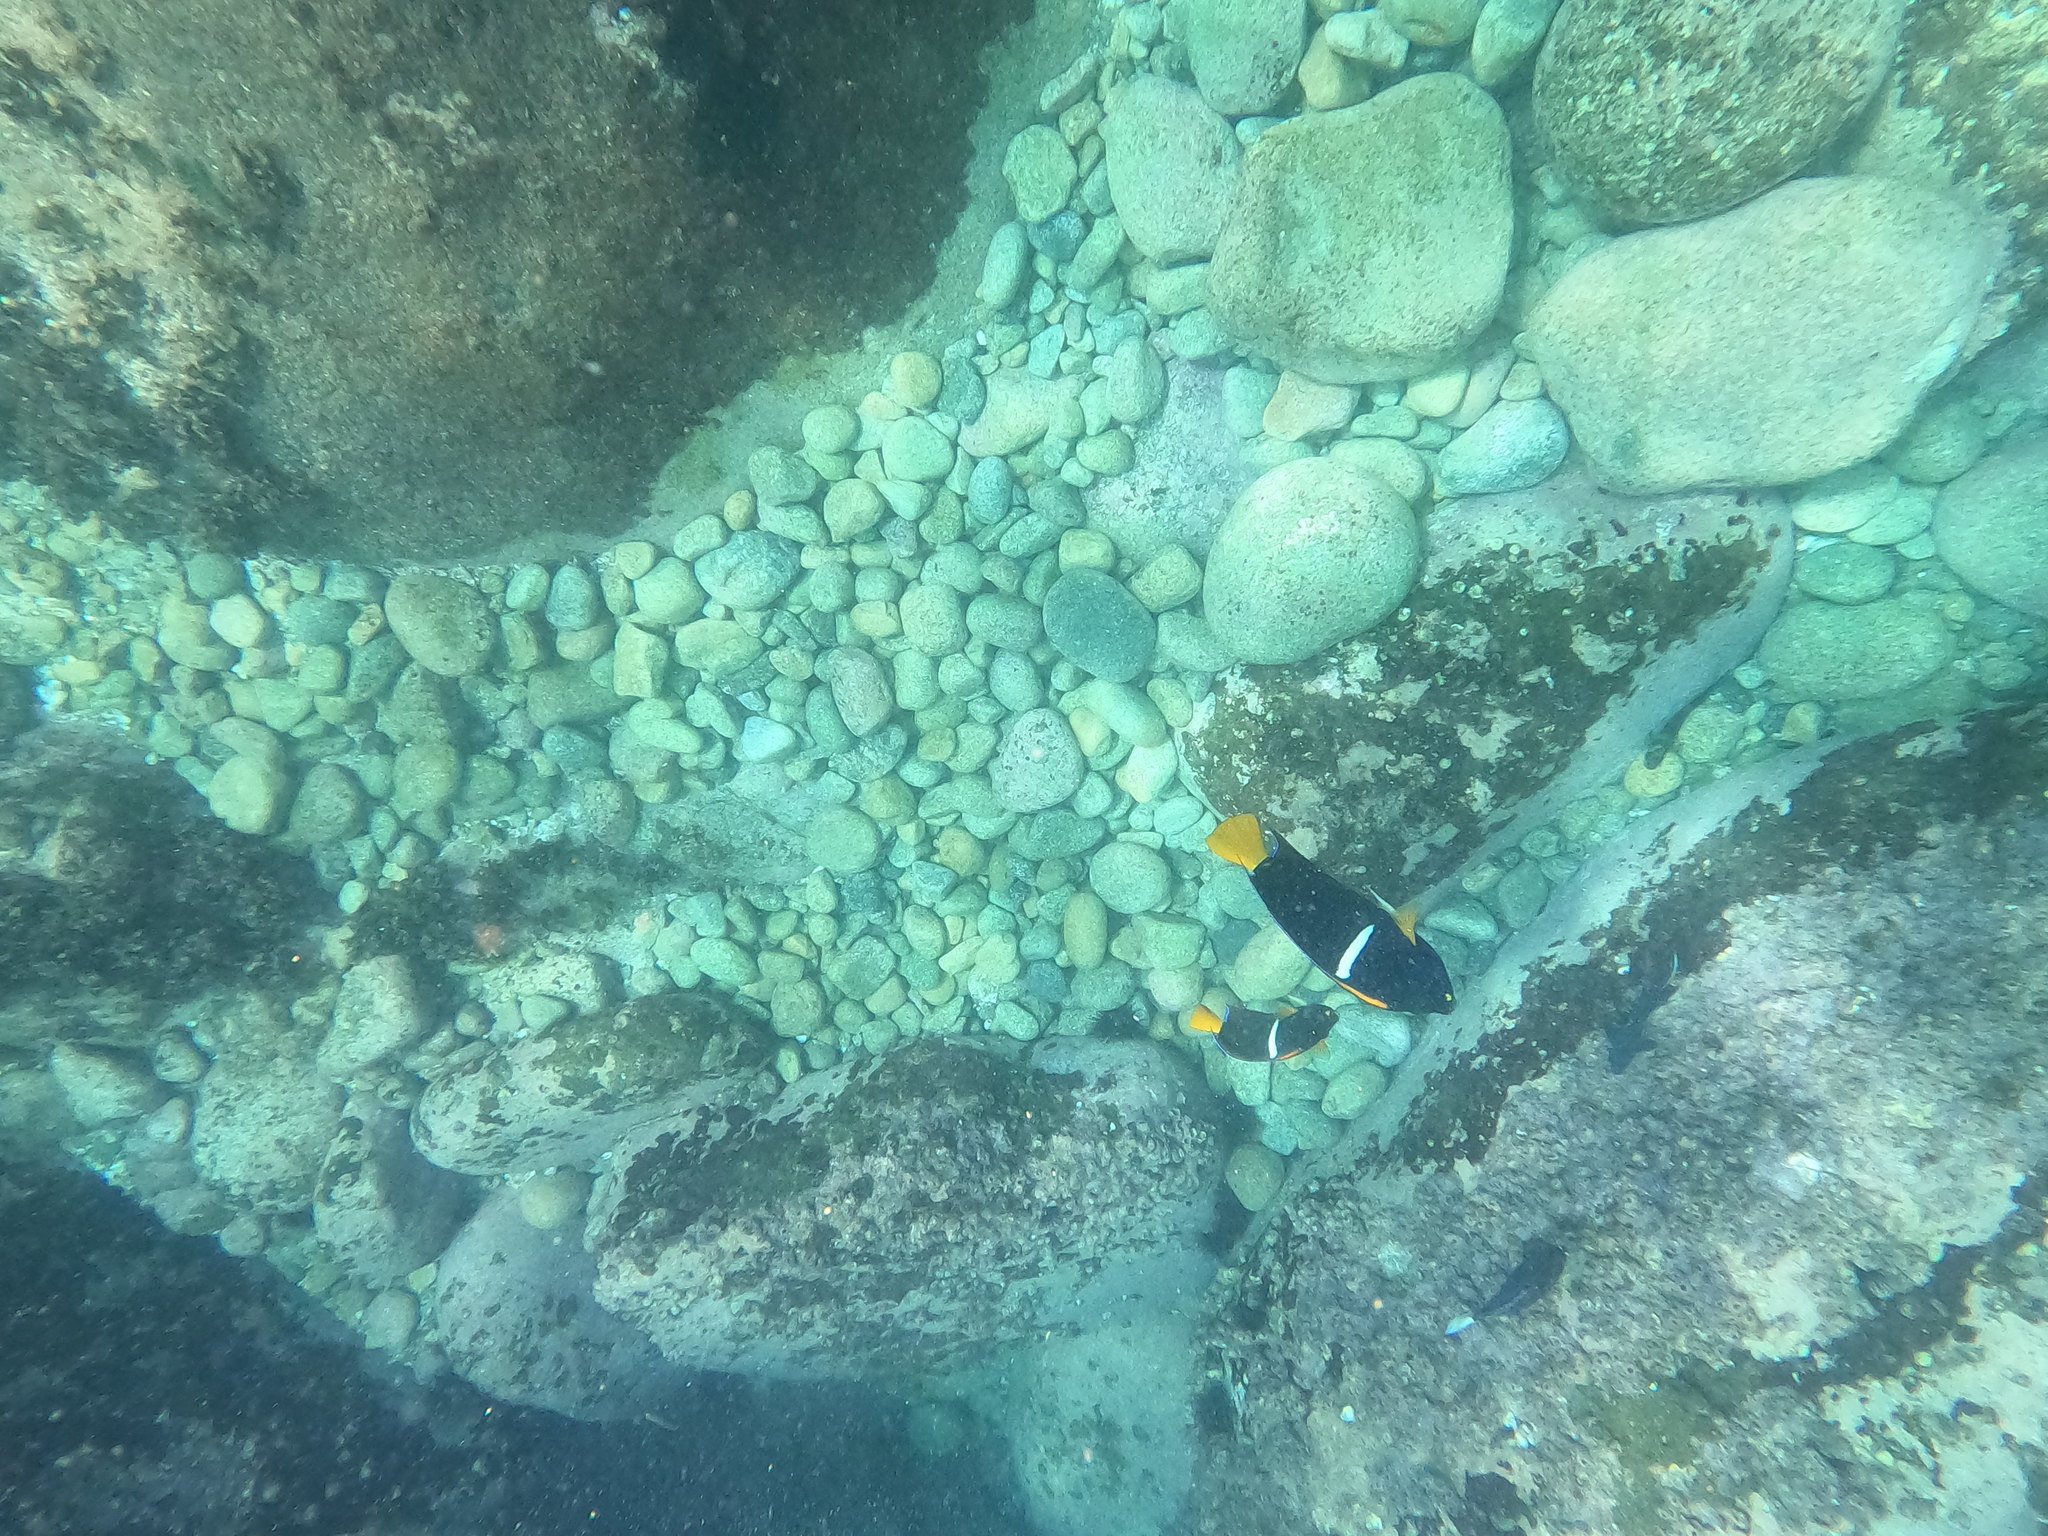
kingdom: Animalia
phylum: Chordata
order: Perciformes
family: Pomacanthidae
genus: Holacanthus
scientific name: Holacanthus passer
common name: King angelfish
